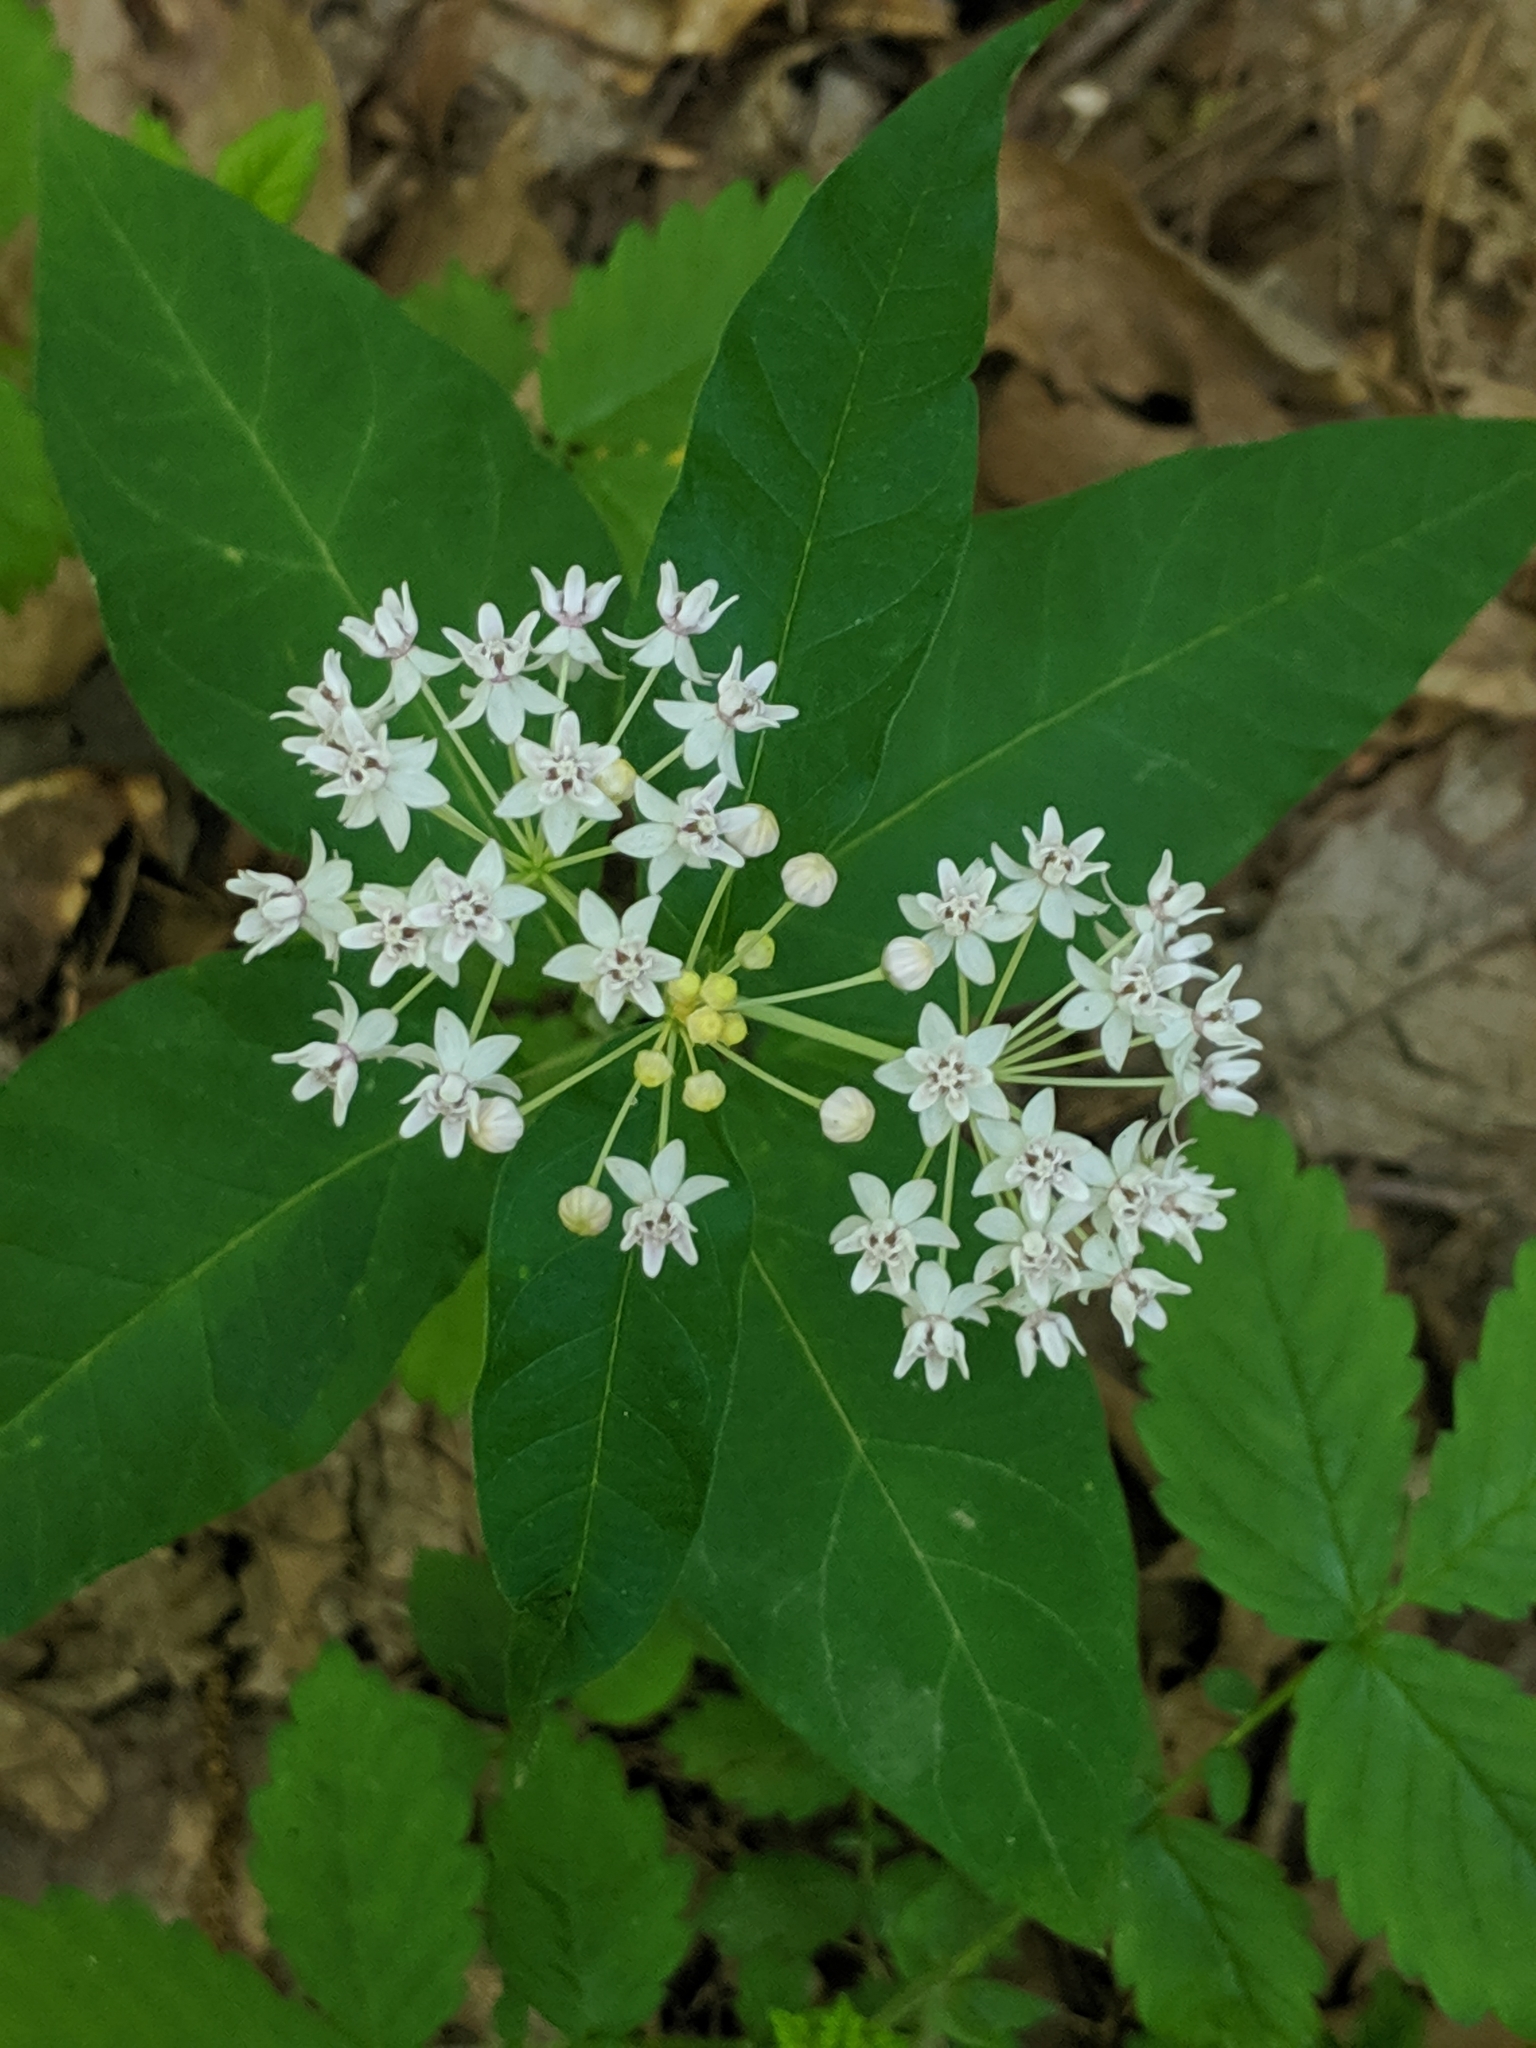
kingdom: Plantae
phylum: Tracheophyta
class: Magnoliopsida
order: Gentianales
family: Apocynaceae
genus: Asclepias
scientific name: Asclepias quadrifolia
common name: Whorled milkweed
